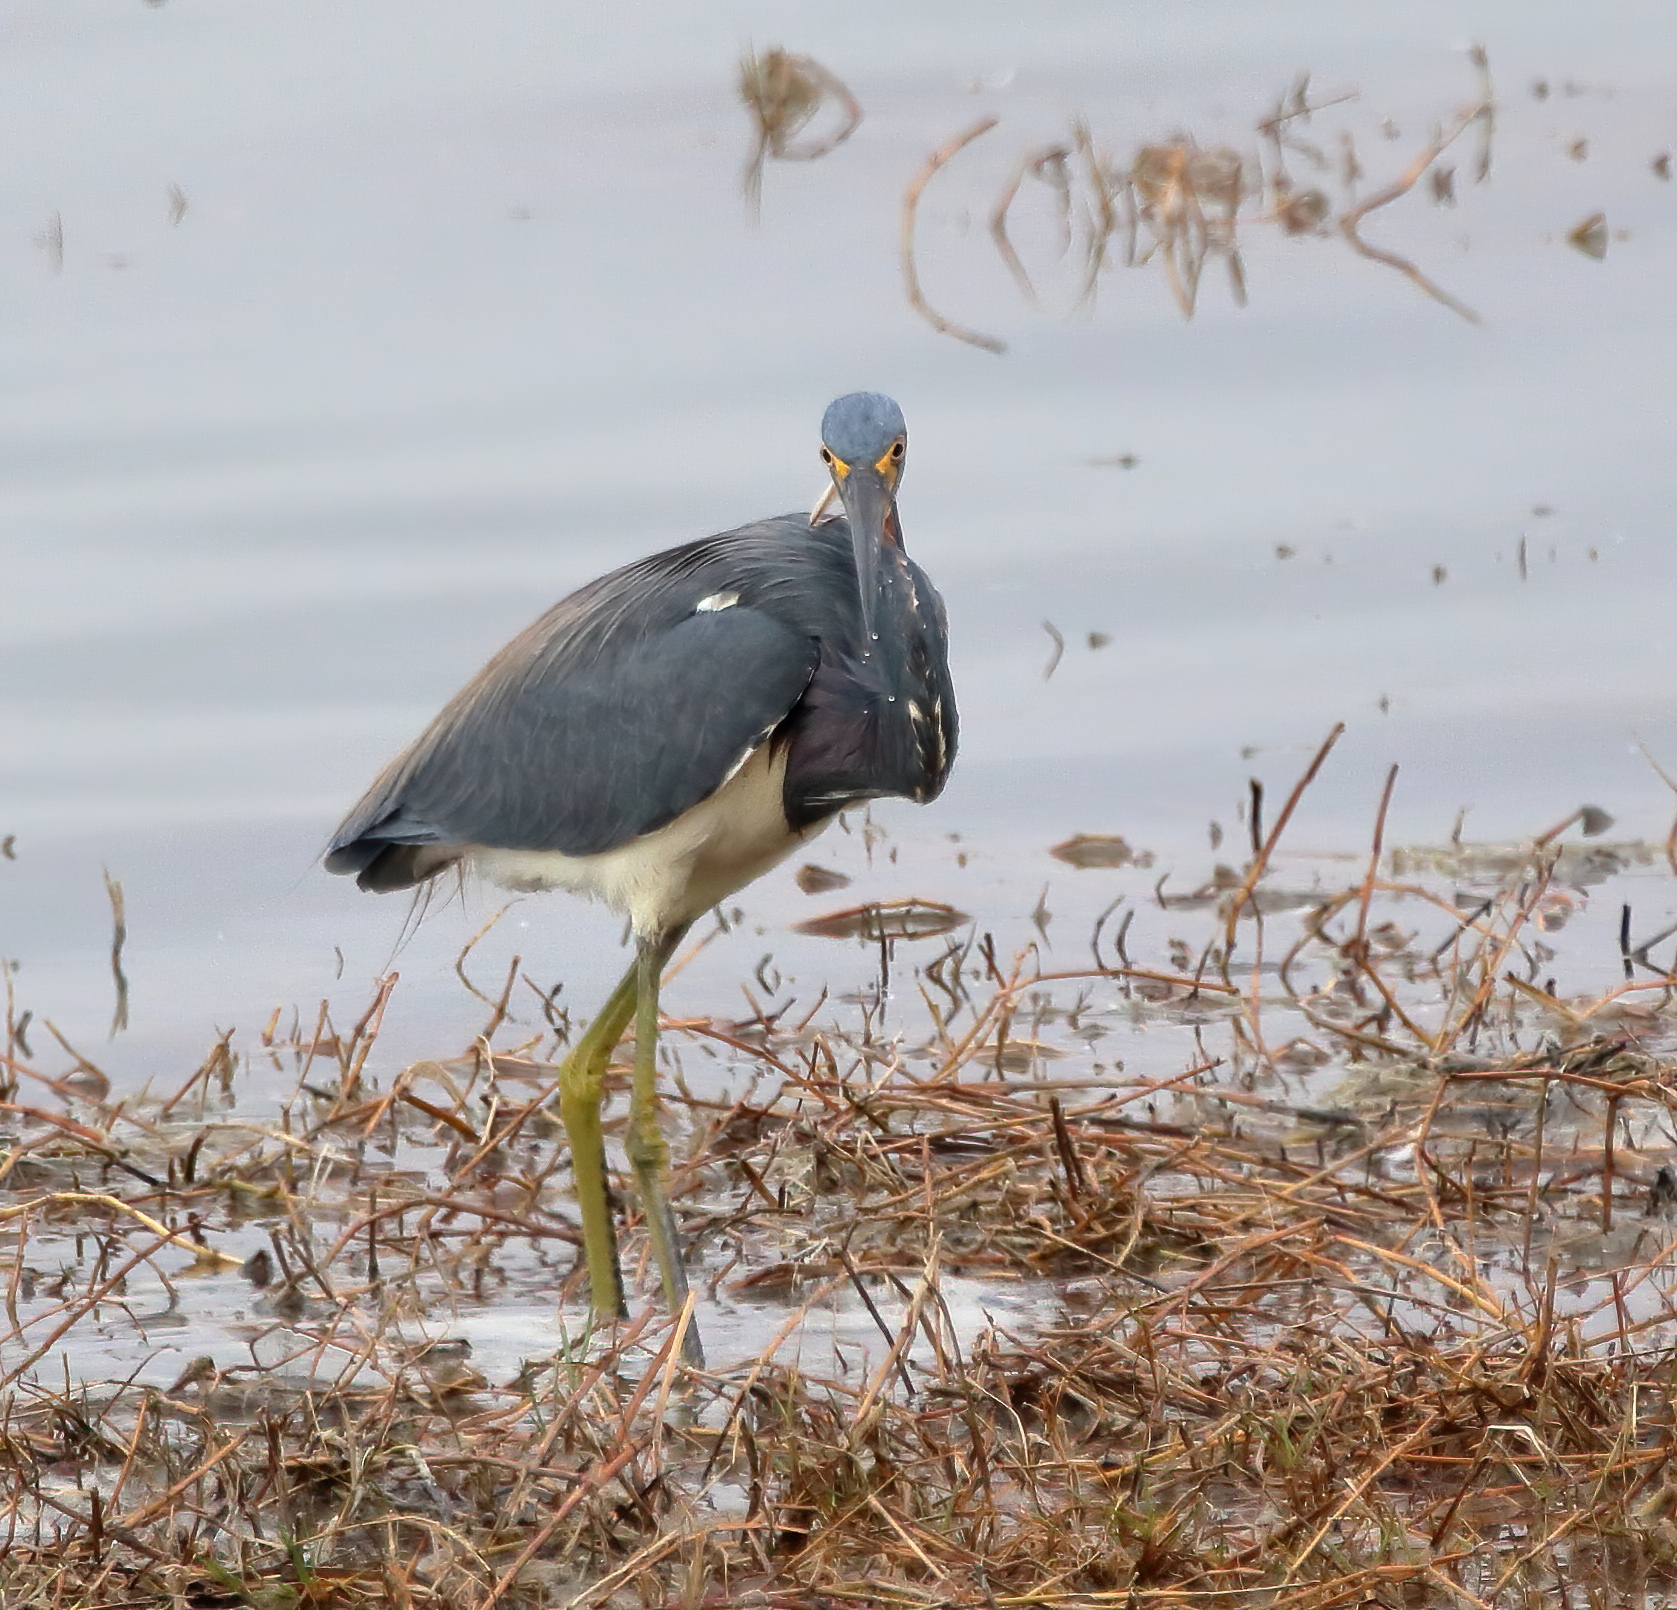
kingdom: Animalia
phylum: Chordata
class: Aves
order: Pelecaniformes
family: Ardeidae
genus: Egretta
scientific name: Egretta tricolor
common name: Tricolored heron
